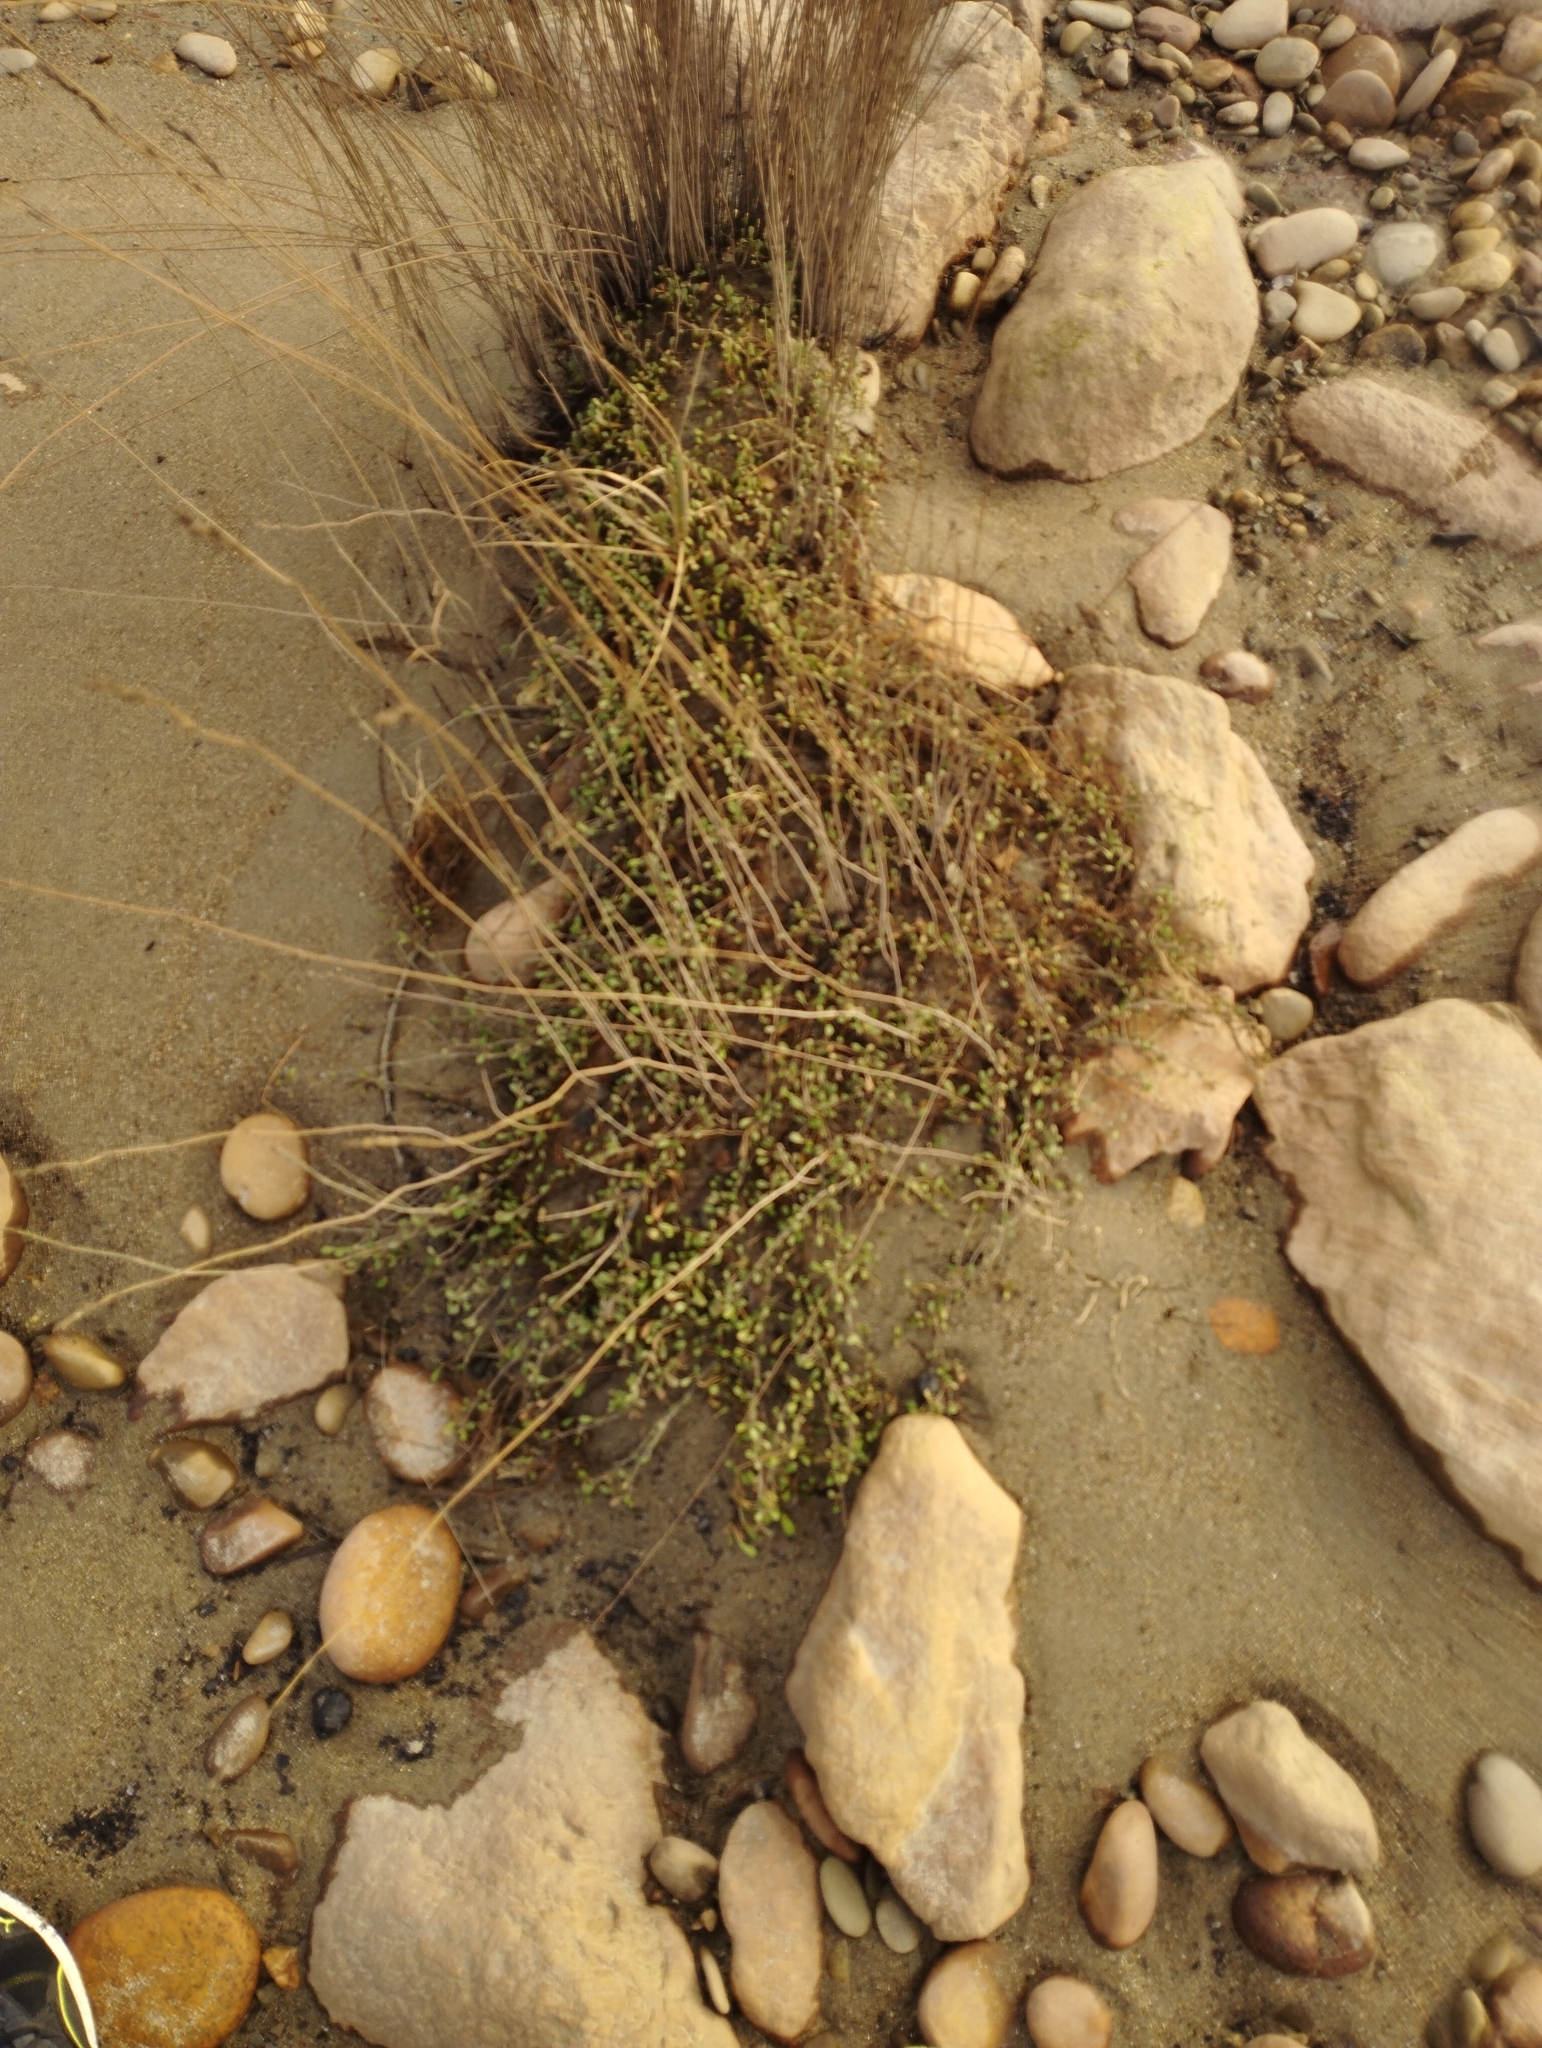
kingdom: Plantae
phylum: Tracheophyta
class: Liliopsida
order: Poales
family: Restionaceae
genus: Apodasmia
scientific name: Apodasmia similis
